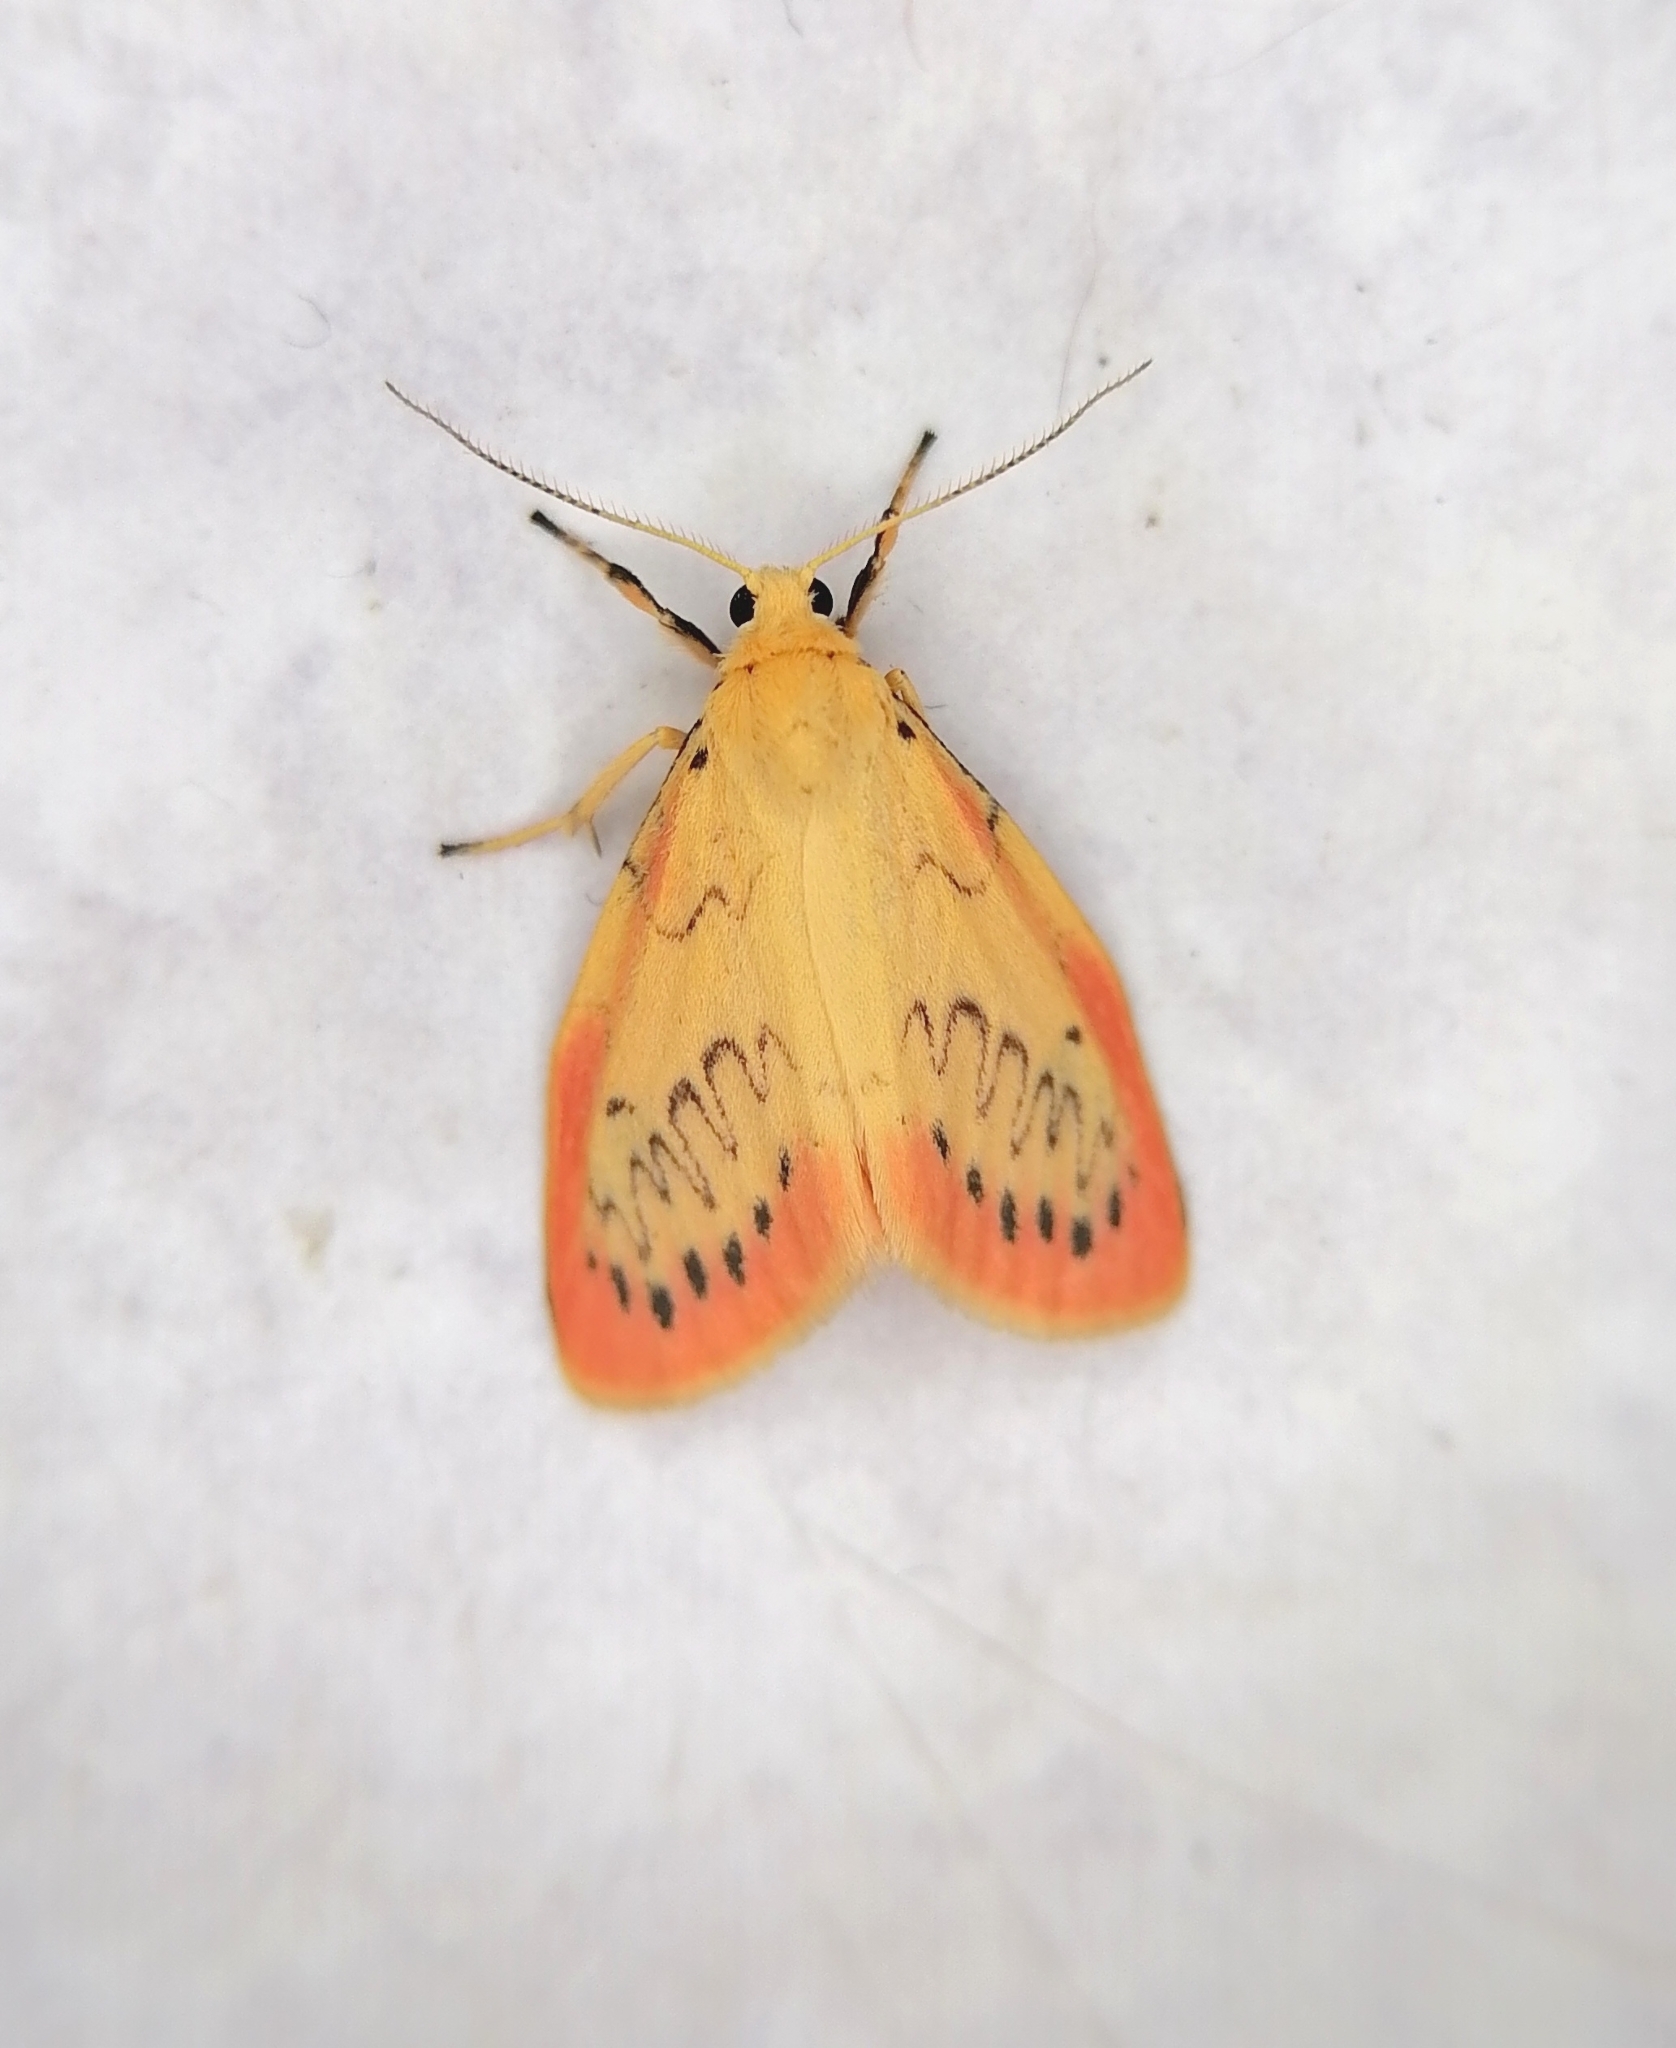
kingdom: Animalia
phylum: Arthropoda
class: Insecta
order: Lepidoptera
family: Erebidae
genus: Miltochrista
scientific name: Miltochrista miniata
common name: Rosy footman
